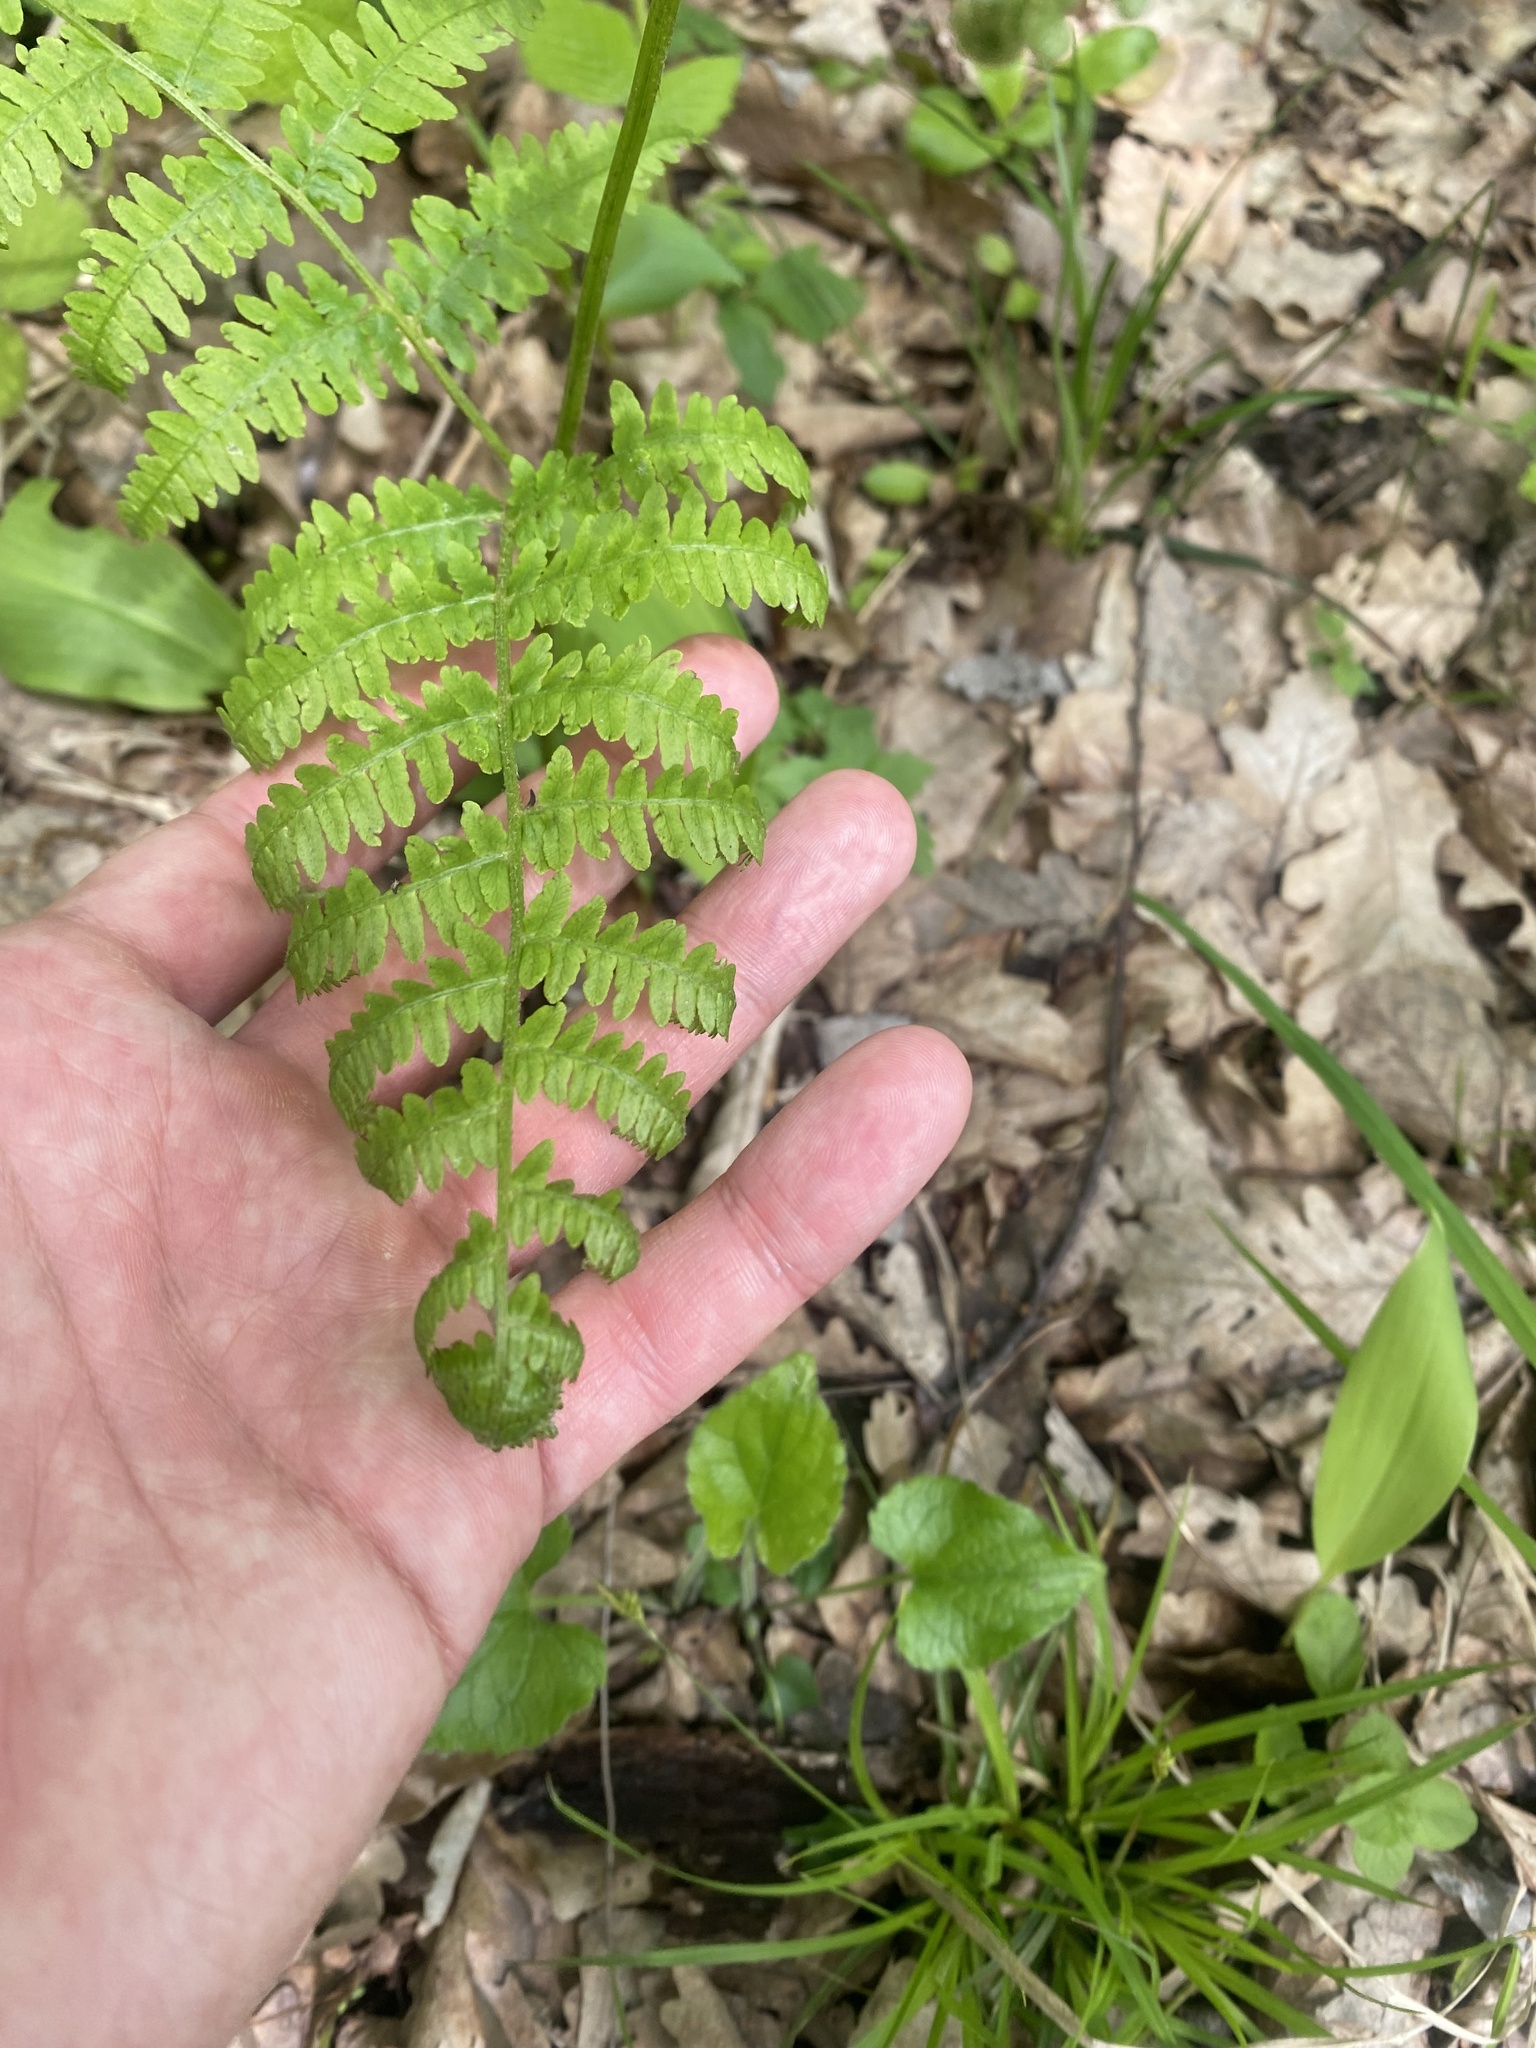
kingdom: Plantae
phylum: Tracheophyta
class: Polypodiopsida
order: Polypodiales
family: Dennstaedtiaceae
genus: Pteridium
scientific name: Pteridium tauricum
